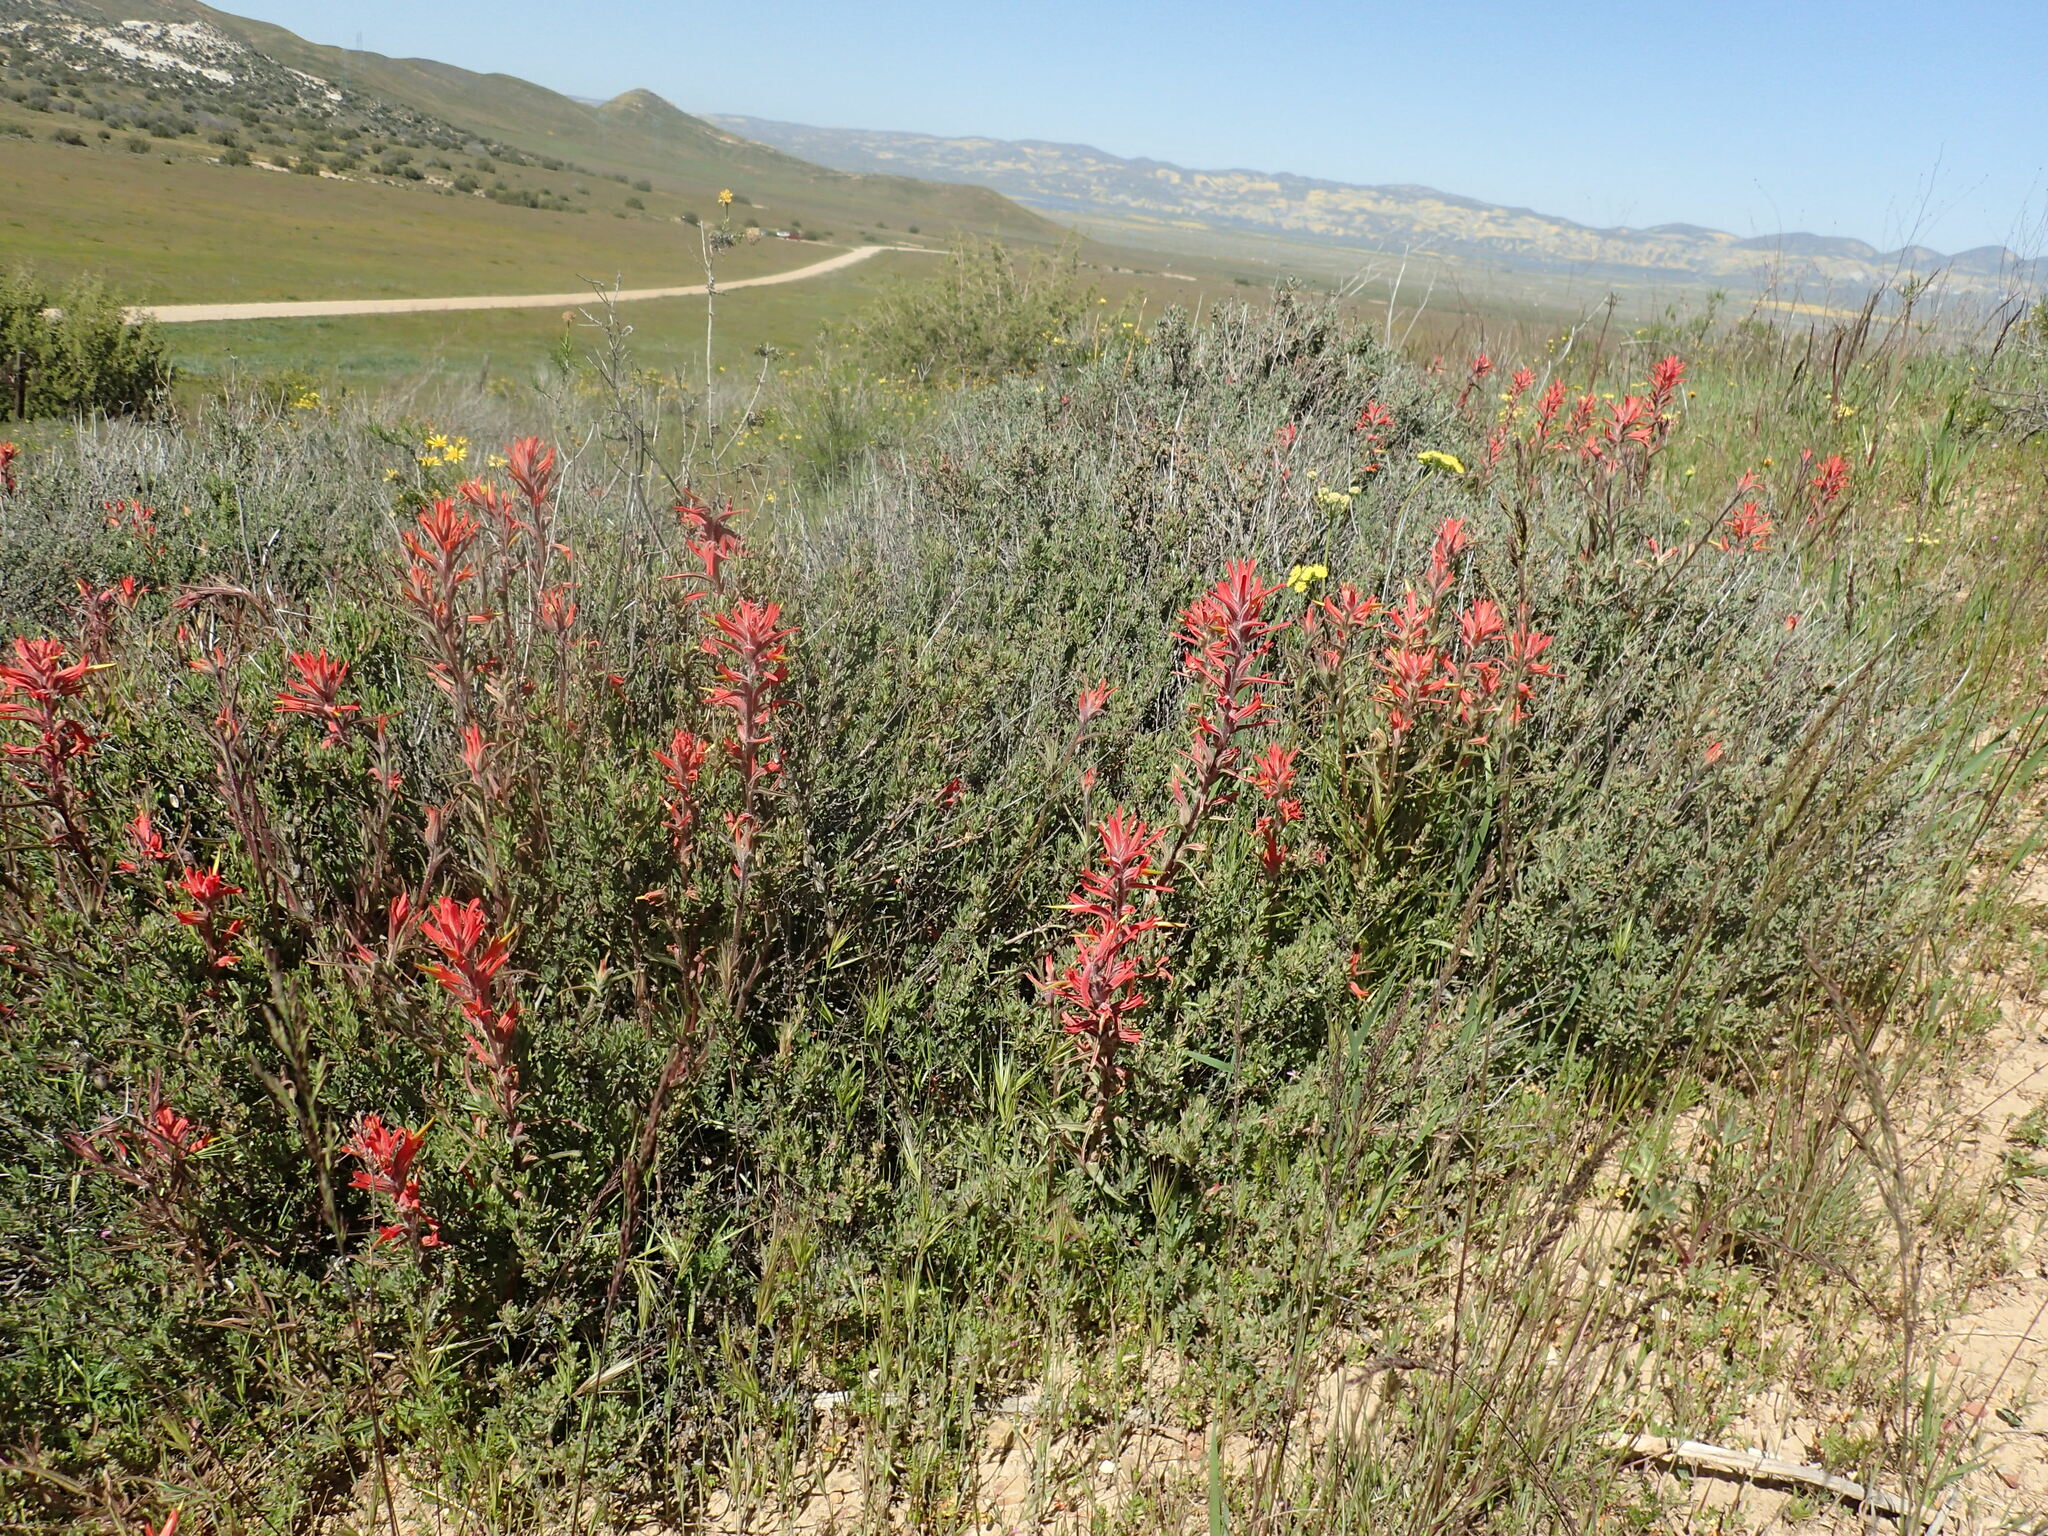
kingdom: Plantae
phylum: Tracheophyta
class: Magnoliopsida
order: Lamiales
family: Orobanchaceae
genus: Castilleja
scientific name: Castilleja subinclusa
